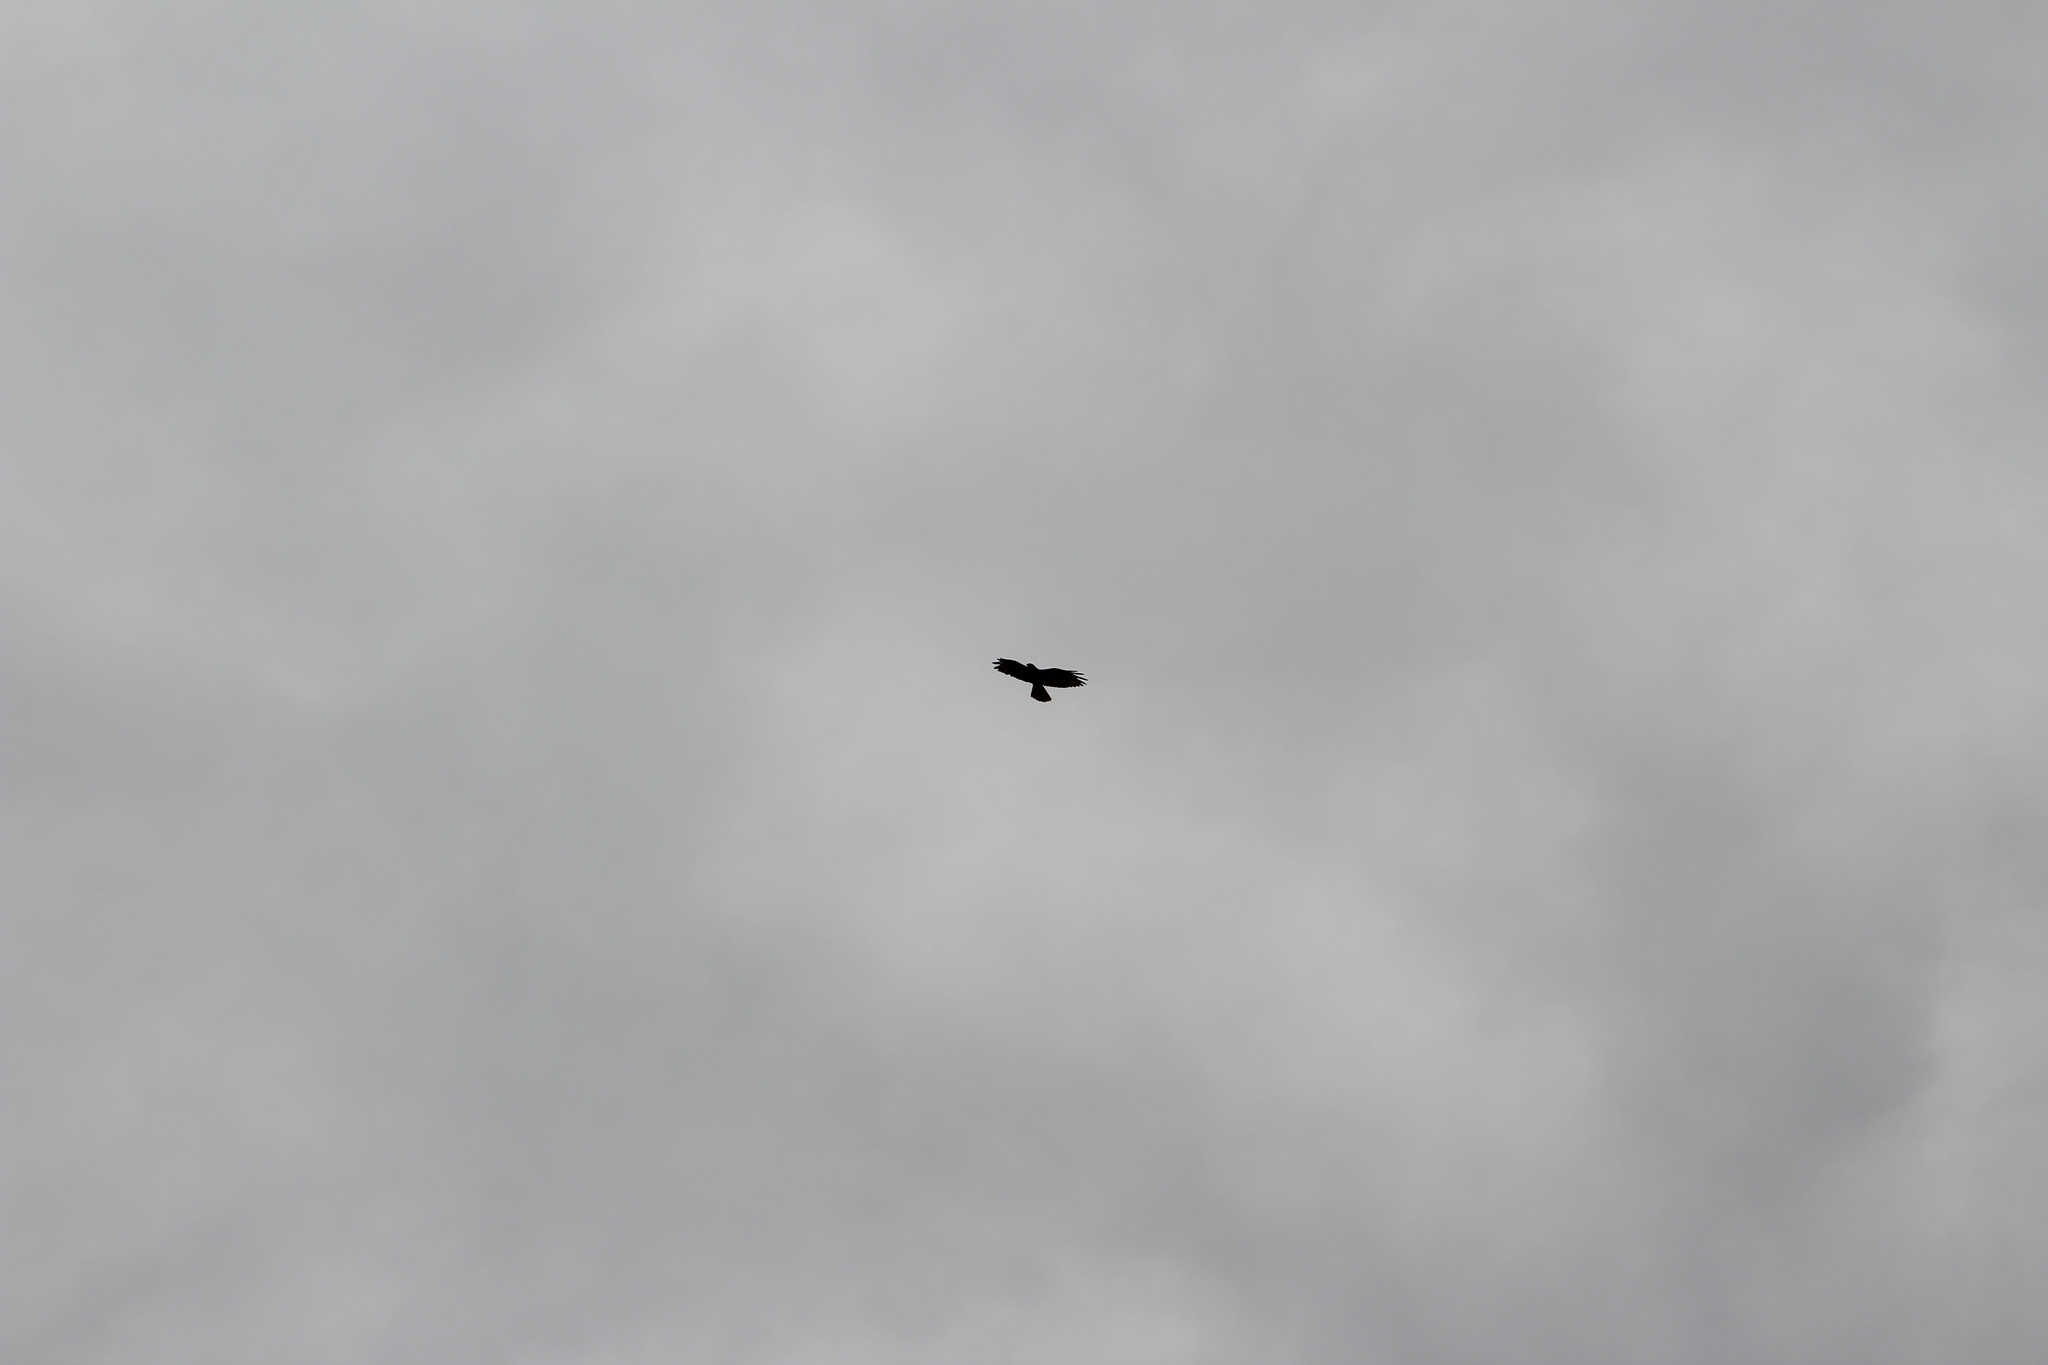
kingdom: Animalia
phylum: Chordata
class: Aves
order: Accipitriformes
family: Accipitridae
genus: Buteo
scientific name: Buteo jamaicensis
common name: Red-tailed hawk
